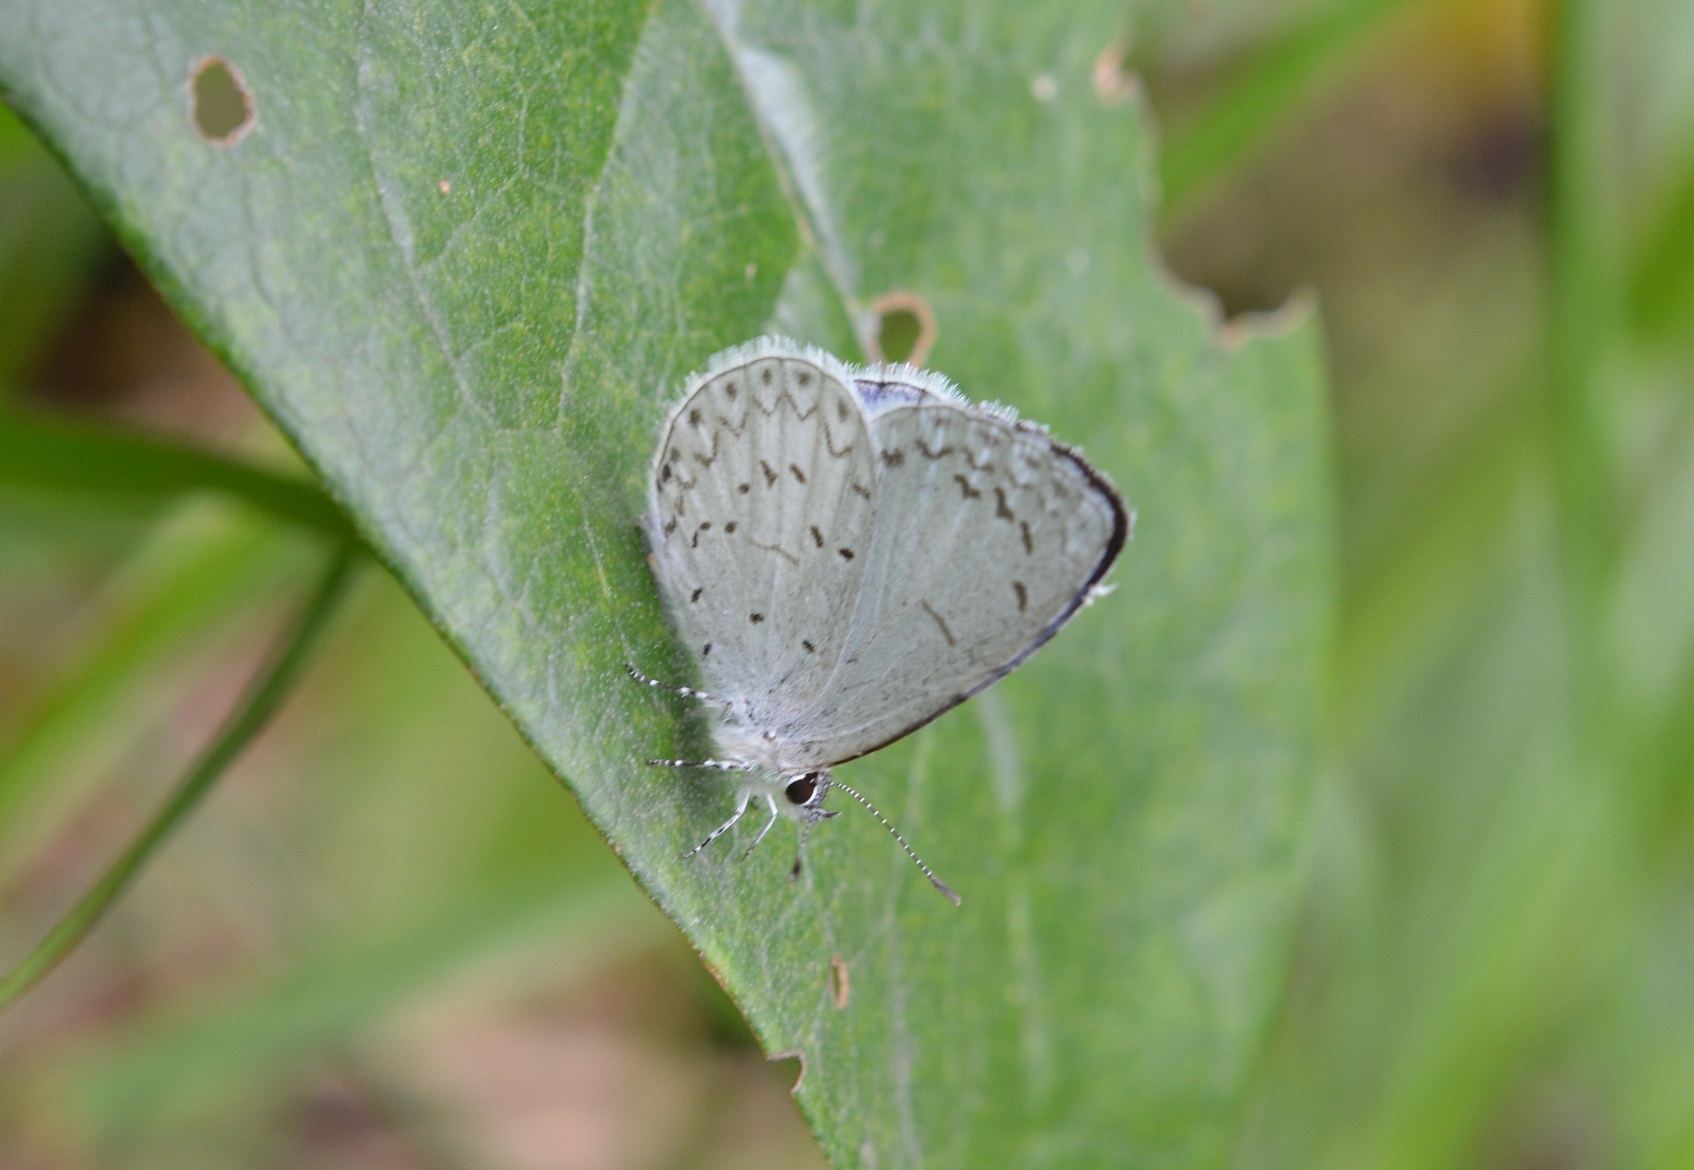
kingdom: Animalia
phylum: Arthropoda
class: Insecta
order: Lepidoptera
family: Lycaenidae
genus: Celastrina
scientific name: Celastrina ladon
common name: Spring azure
